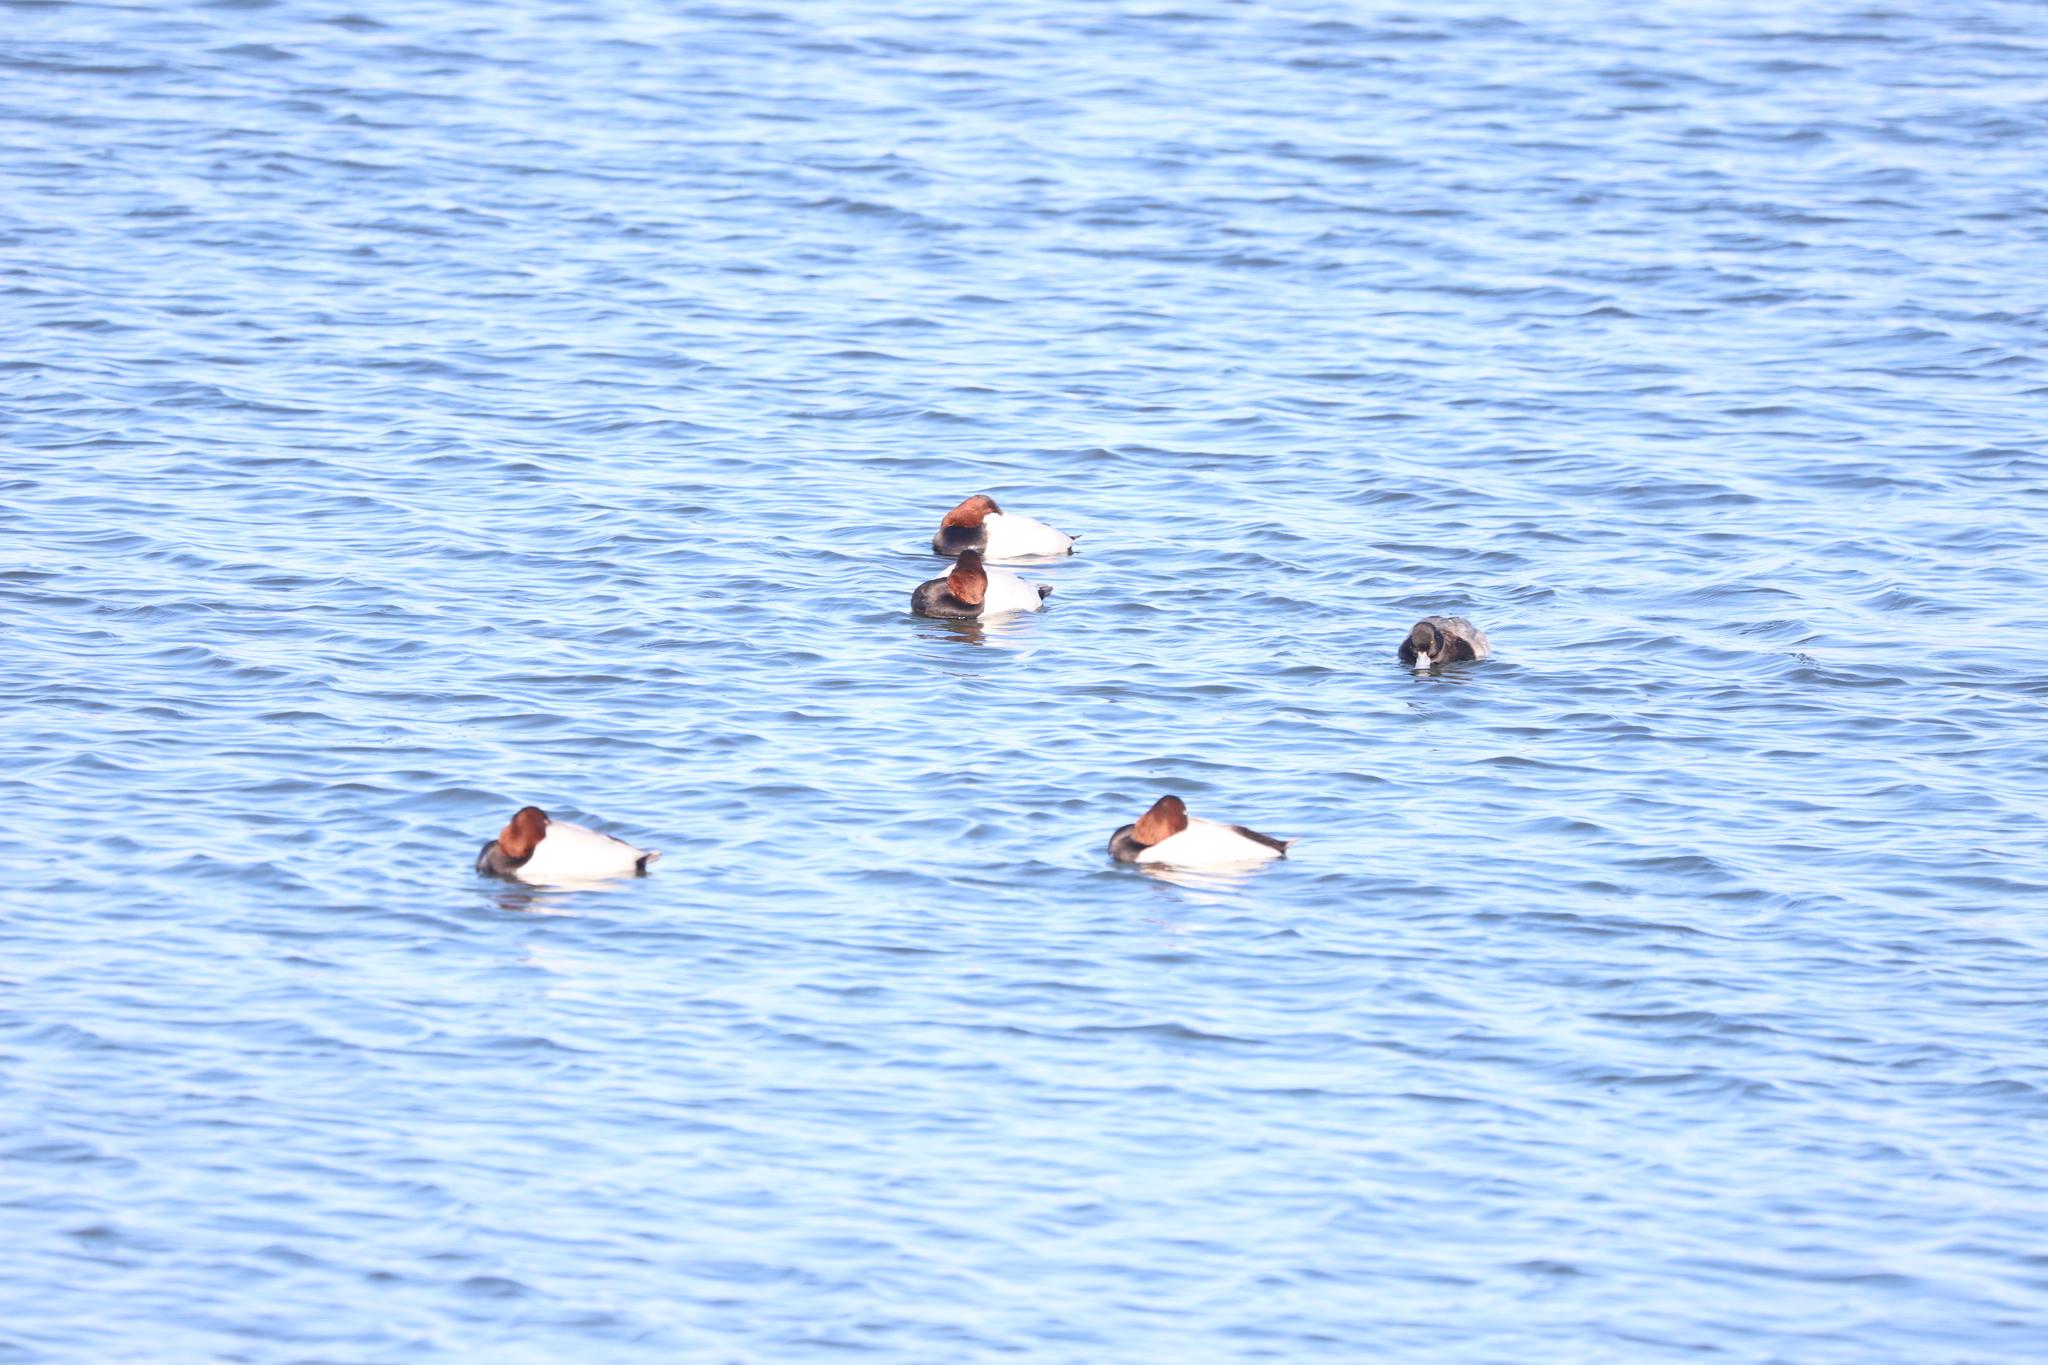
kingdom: Animalia
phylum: Chordata
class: Aves
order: Anseriformes
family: Anatidae
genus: Aythya
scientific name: Aythya valisineria
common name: Canvasback
